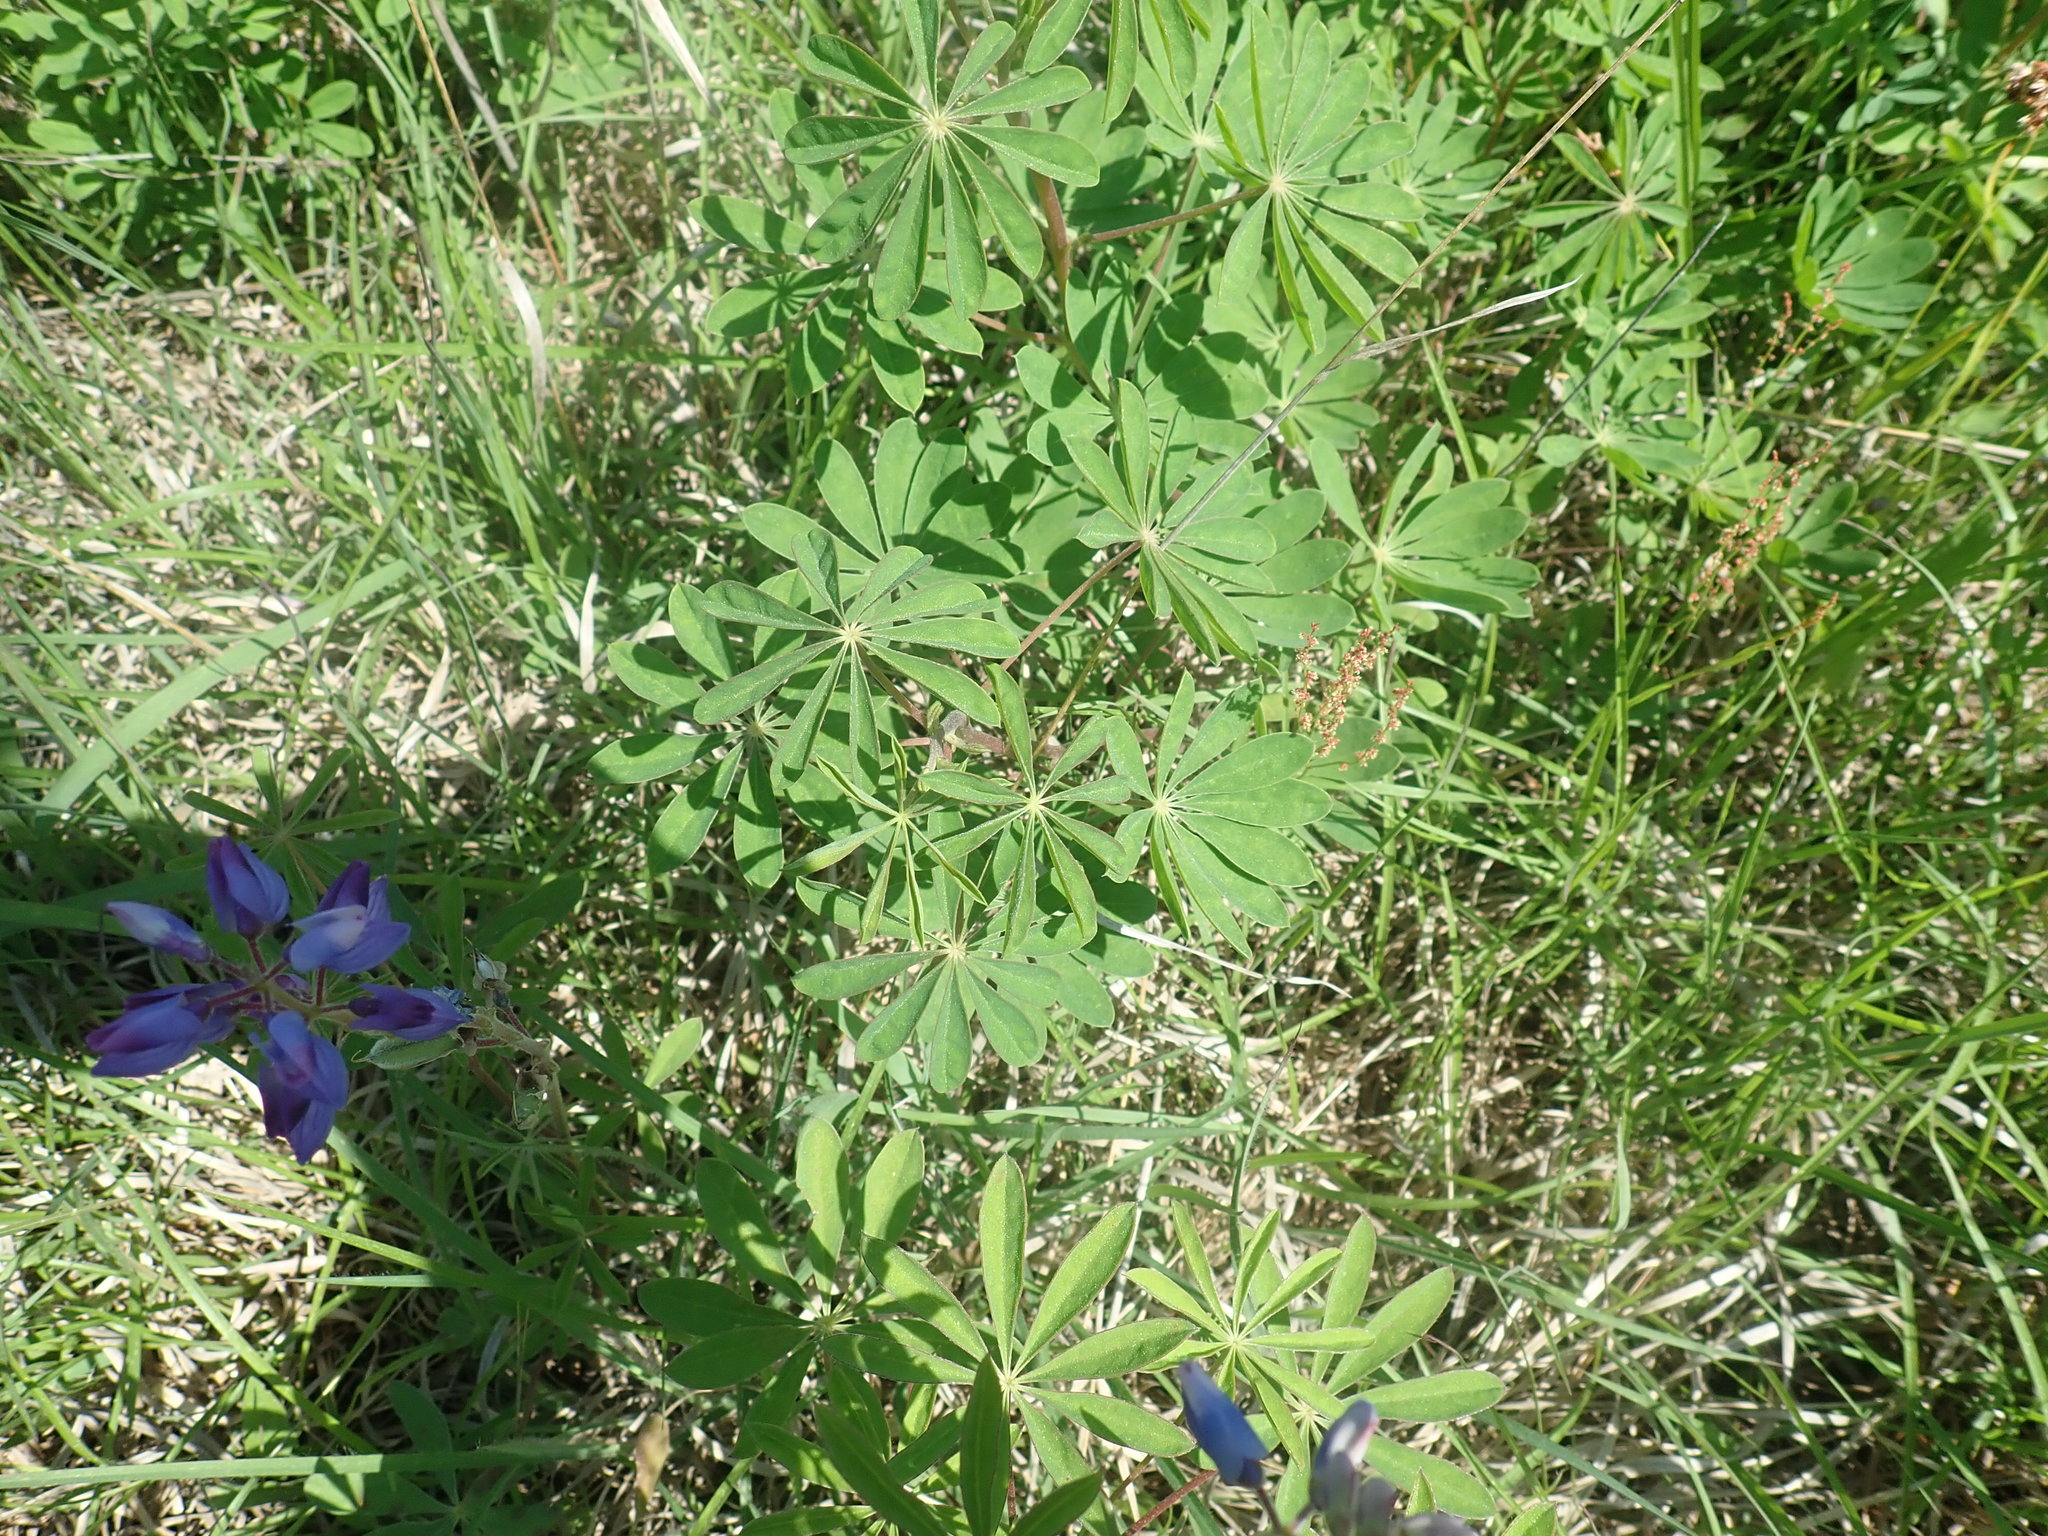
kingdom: Plantae
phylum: Tracheophyta
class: Magnoliopsida
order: Fabales
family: Fabaceae
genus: Lupinus
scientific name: Lupinus perennis
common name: Sundial lupine
